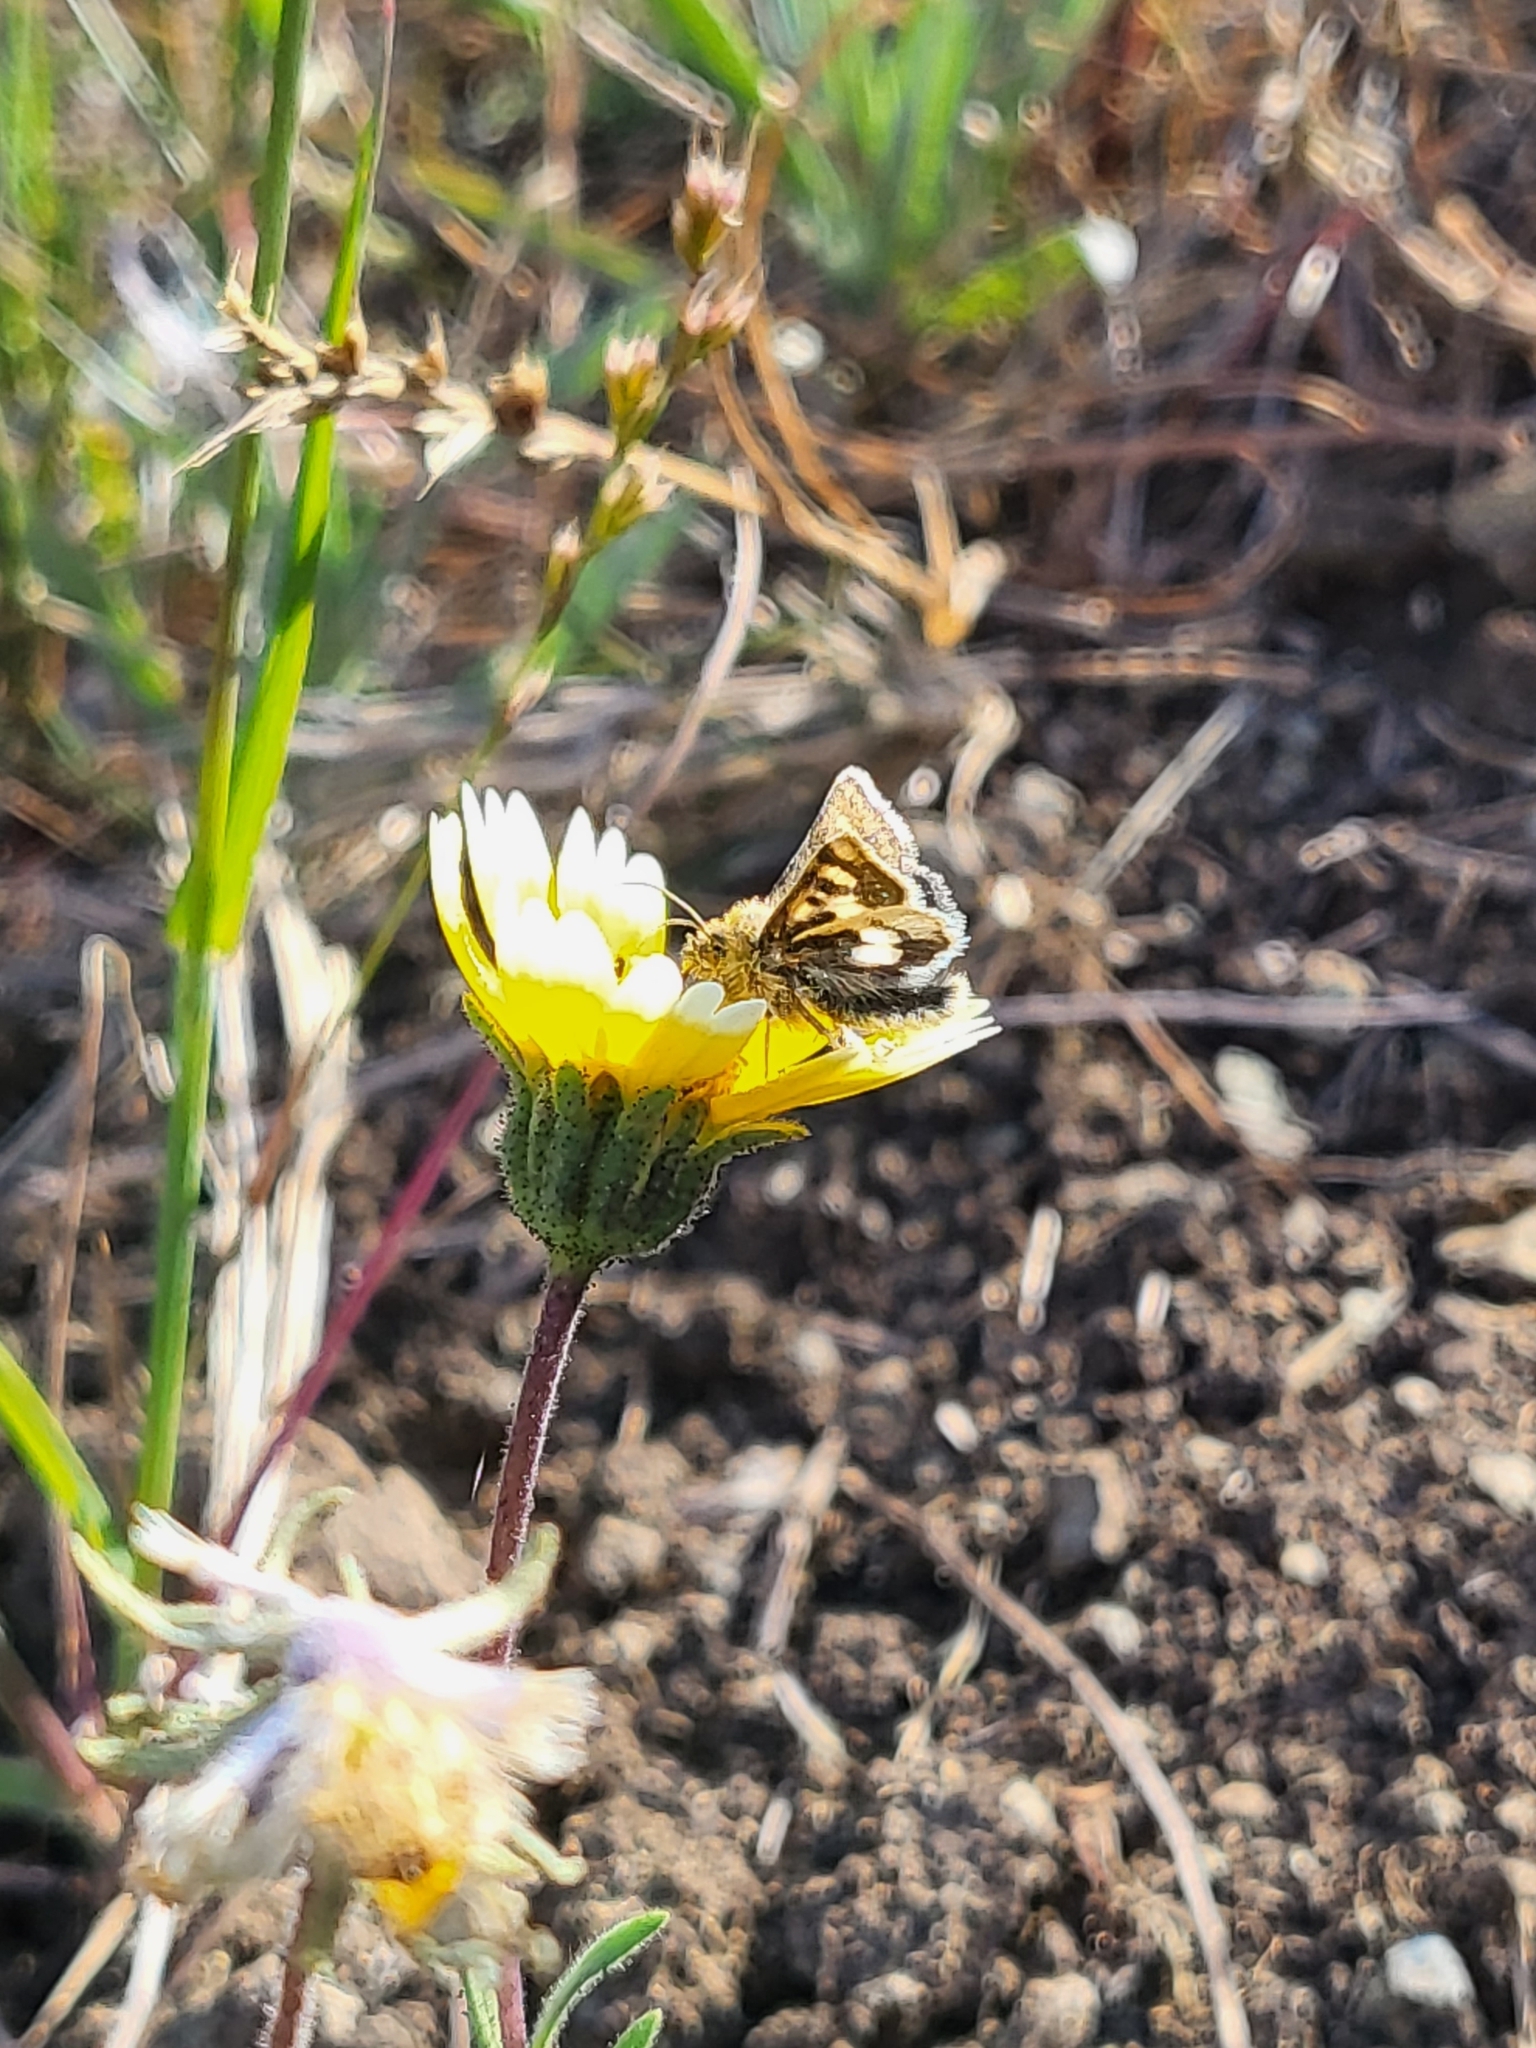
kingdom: Animalia
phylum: Arthropoda
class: Insecta
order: Lepidoptera
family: Noctuidae
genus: Heliothodes
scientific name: Heliothodes diminutiva
